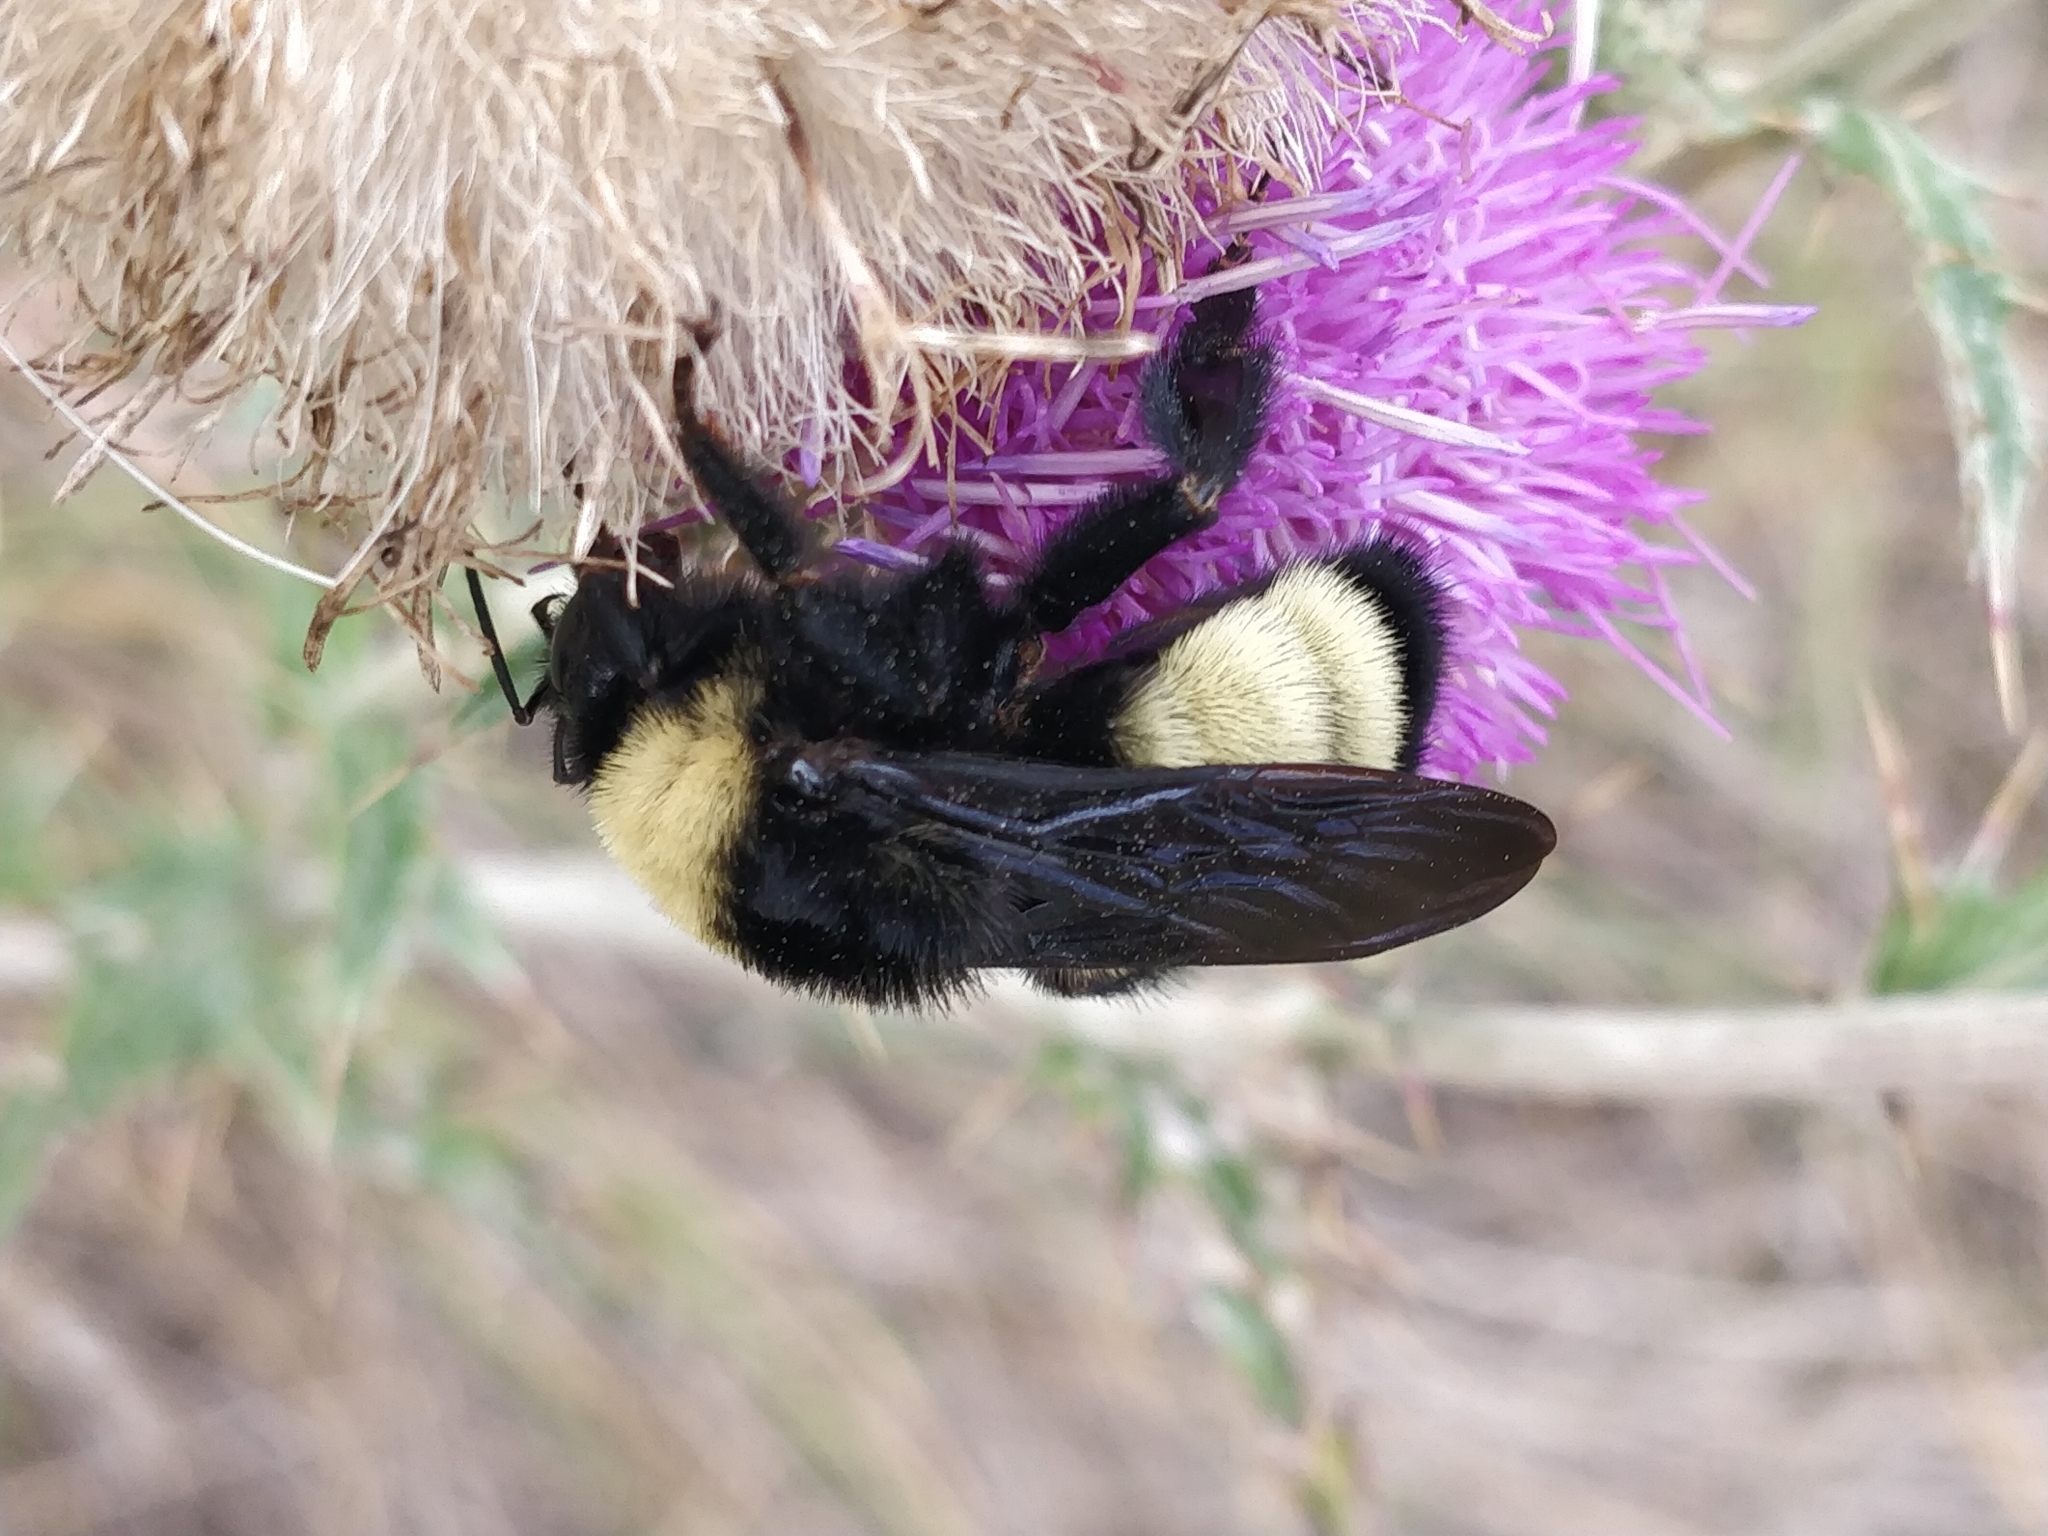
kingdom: Animalia
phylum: Arthropoda
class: Insecta
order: Hymenoptera
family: Apidae
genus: Bombus
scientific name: Bombus pensylvanicus
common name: Bumble bee
